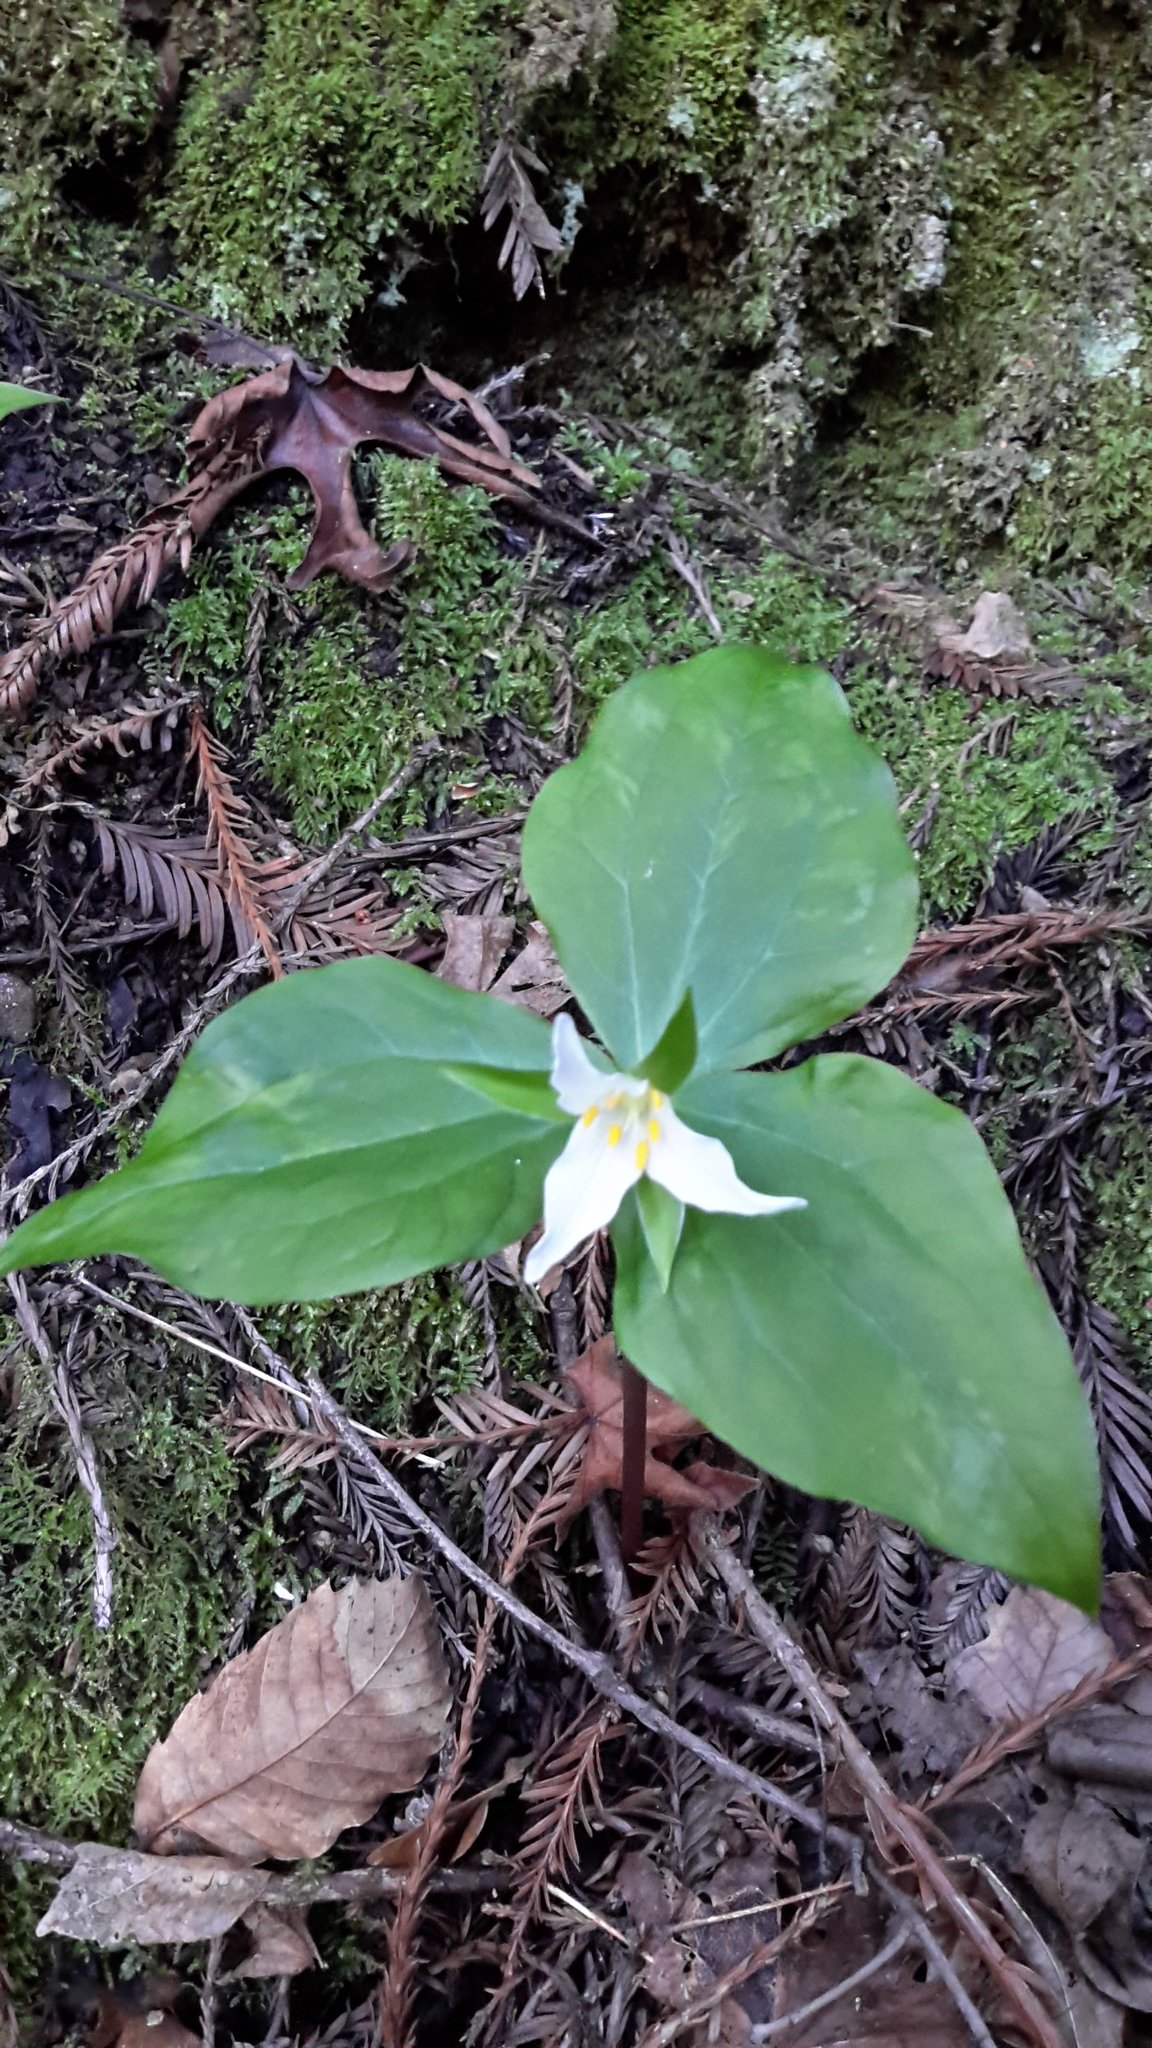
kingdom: Plantae
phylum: Tracheophyta
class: Liliopsida
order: Liliales
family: Melanthiaceae
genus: Trillium
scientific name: Trillium ovatum
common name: Pacific trillium
